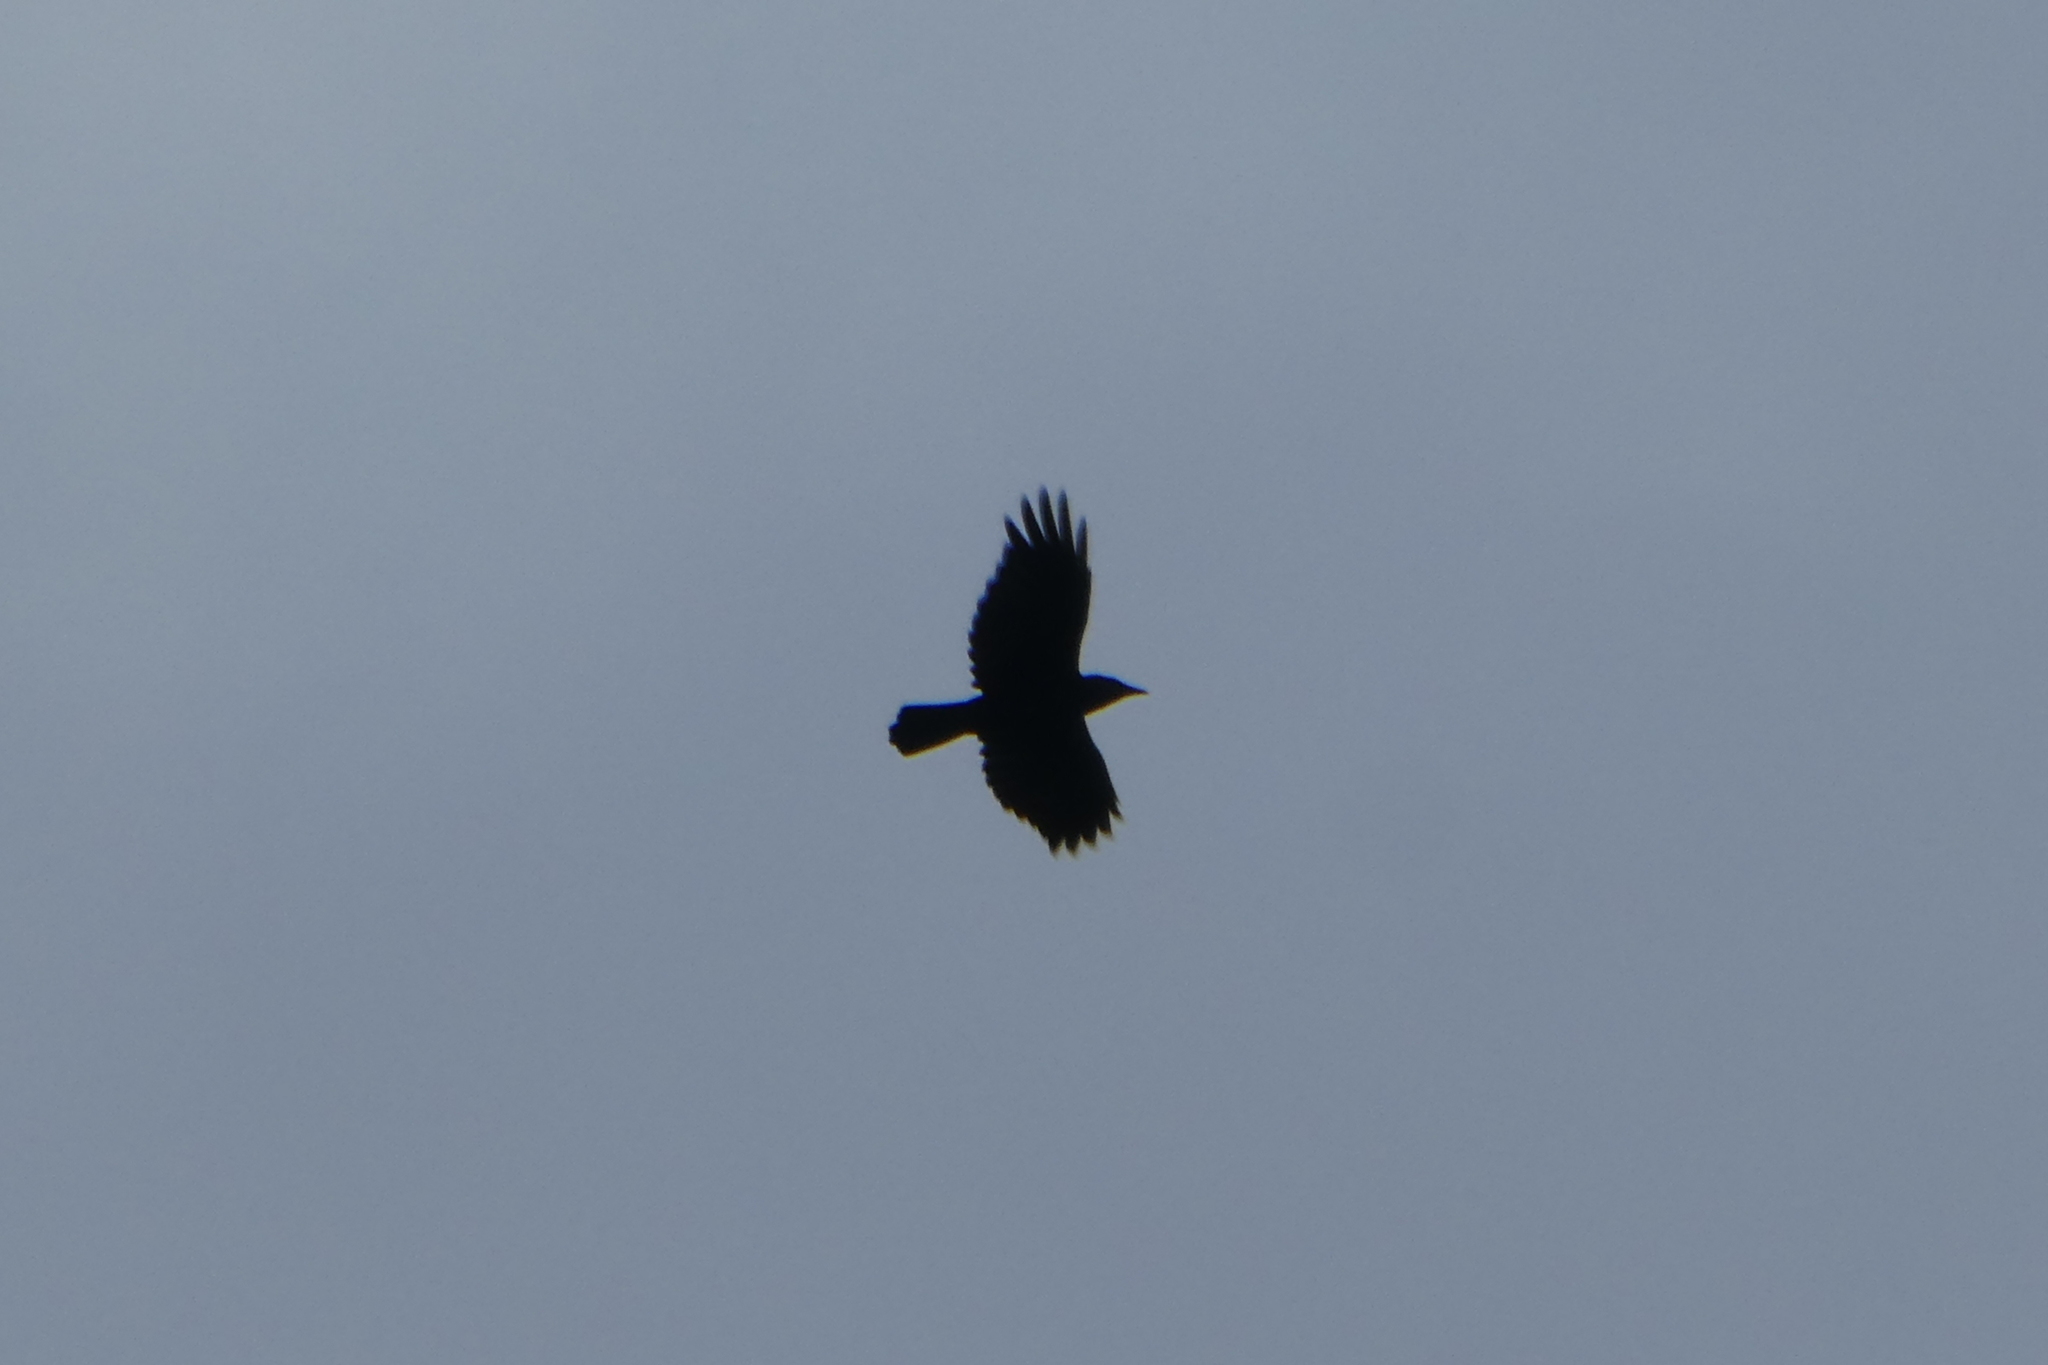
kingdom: Animalia
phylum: Chordata
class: Aves
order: Passeriformes
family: Corvidae
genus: Corvus
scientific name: Corvus corax
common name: Common raven
